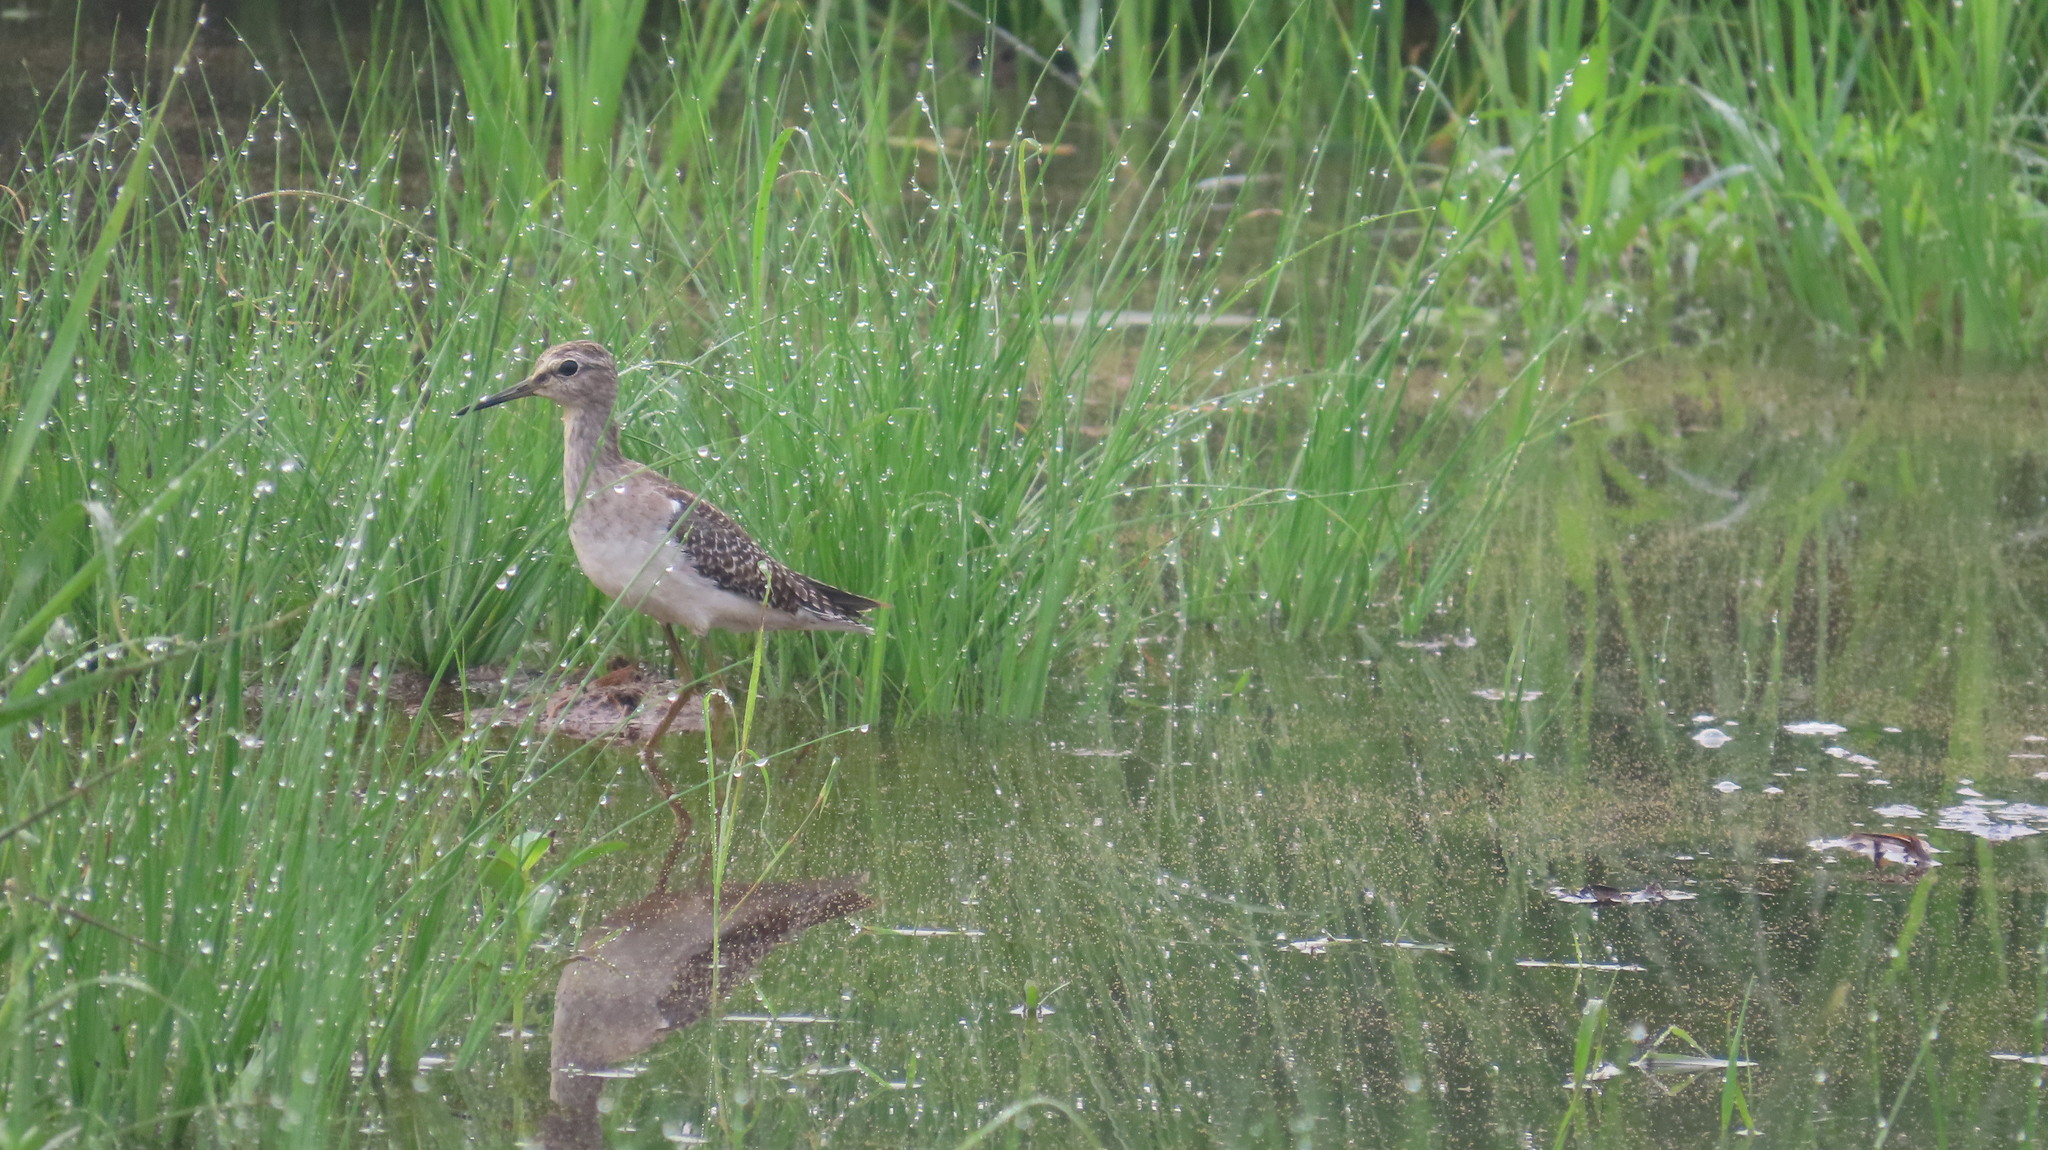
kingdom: Animalia
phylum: Chordata
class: Aves
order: Charadriiformes
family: Scolopacidae
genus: Tringa
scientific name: Tringa glareola
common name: Wood sandpiper
